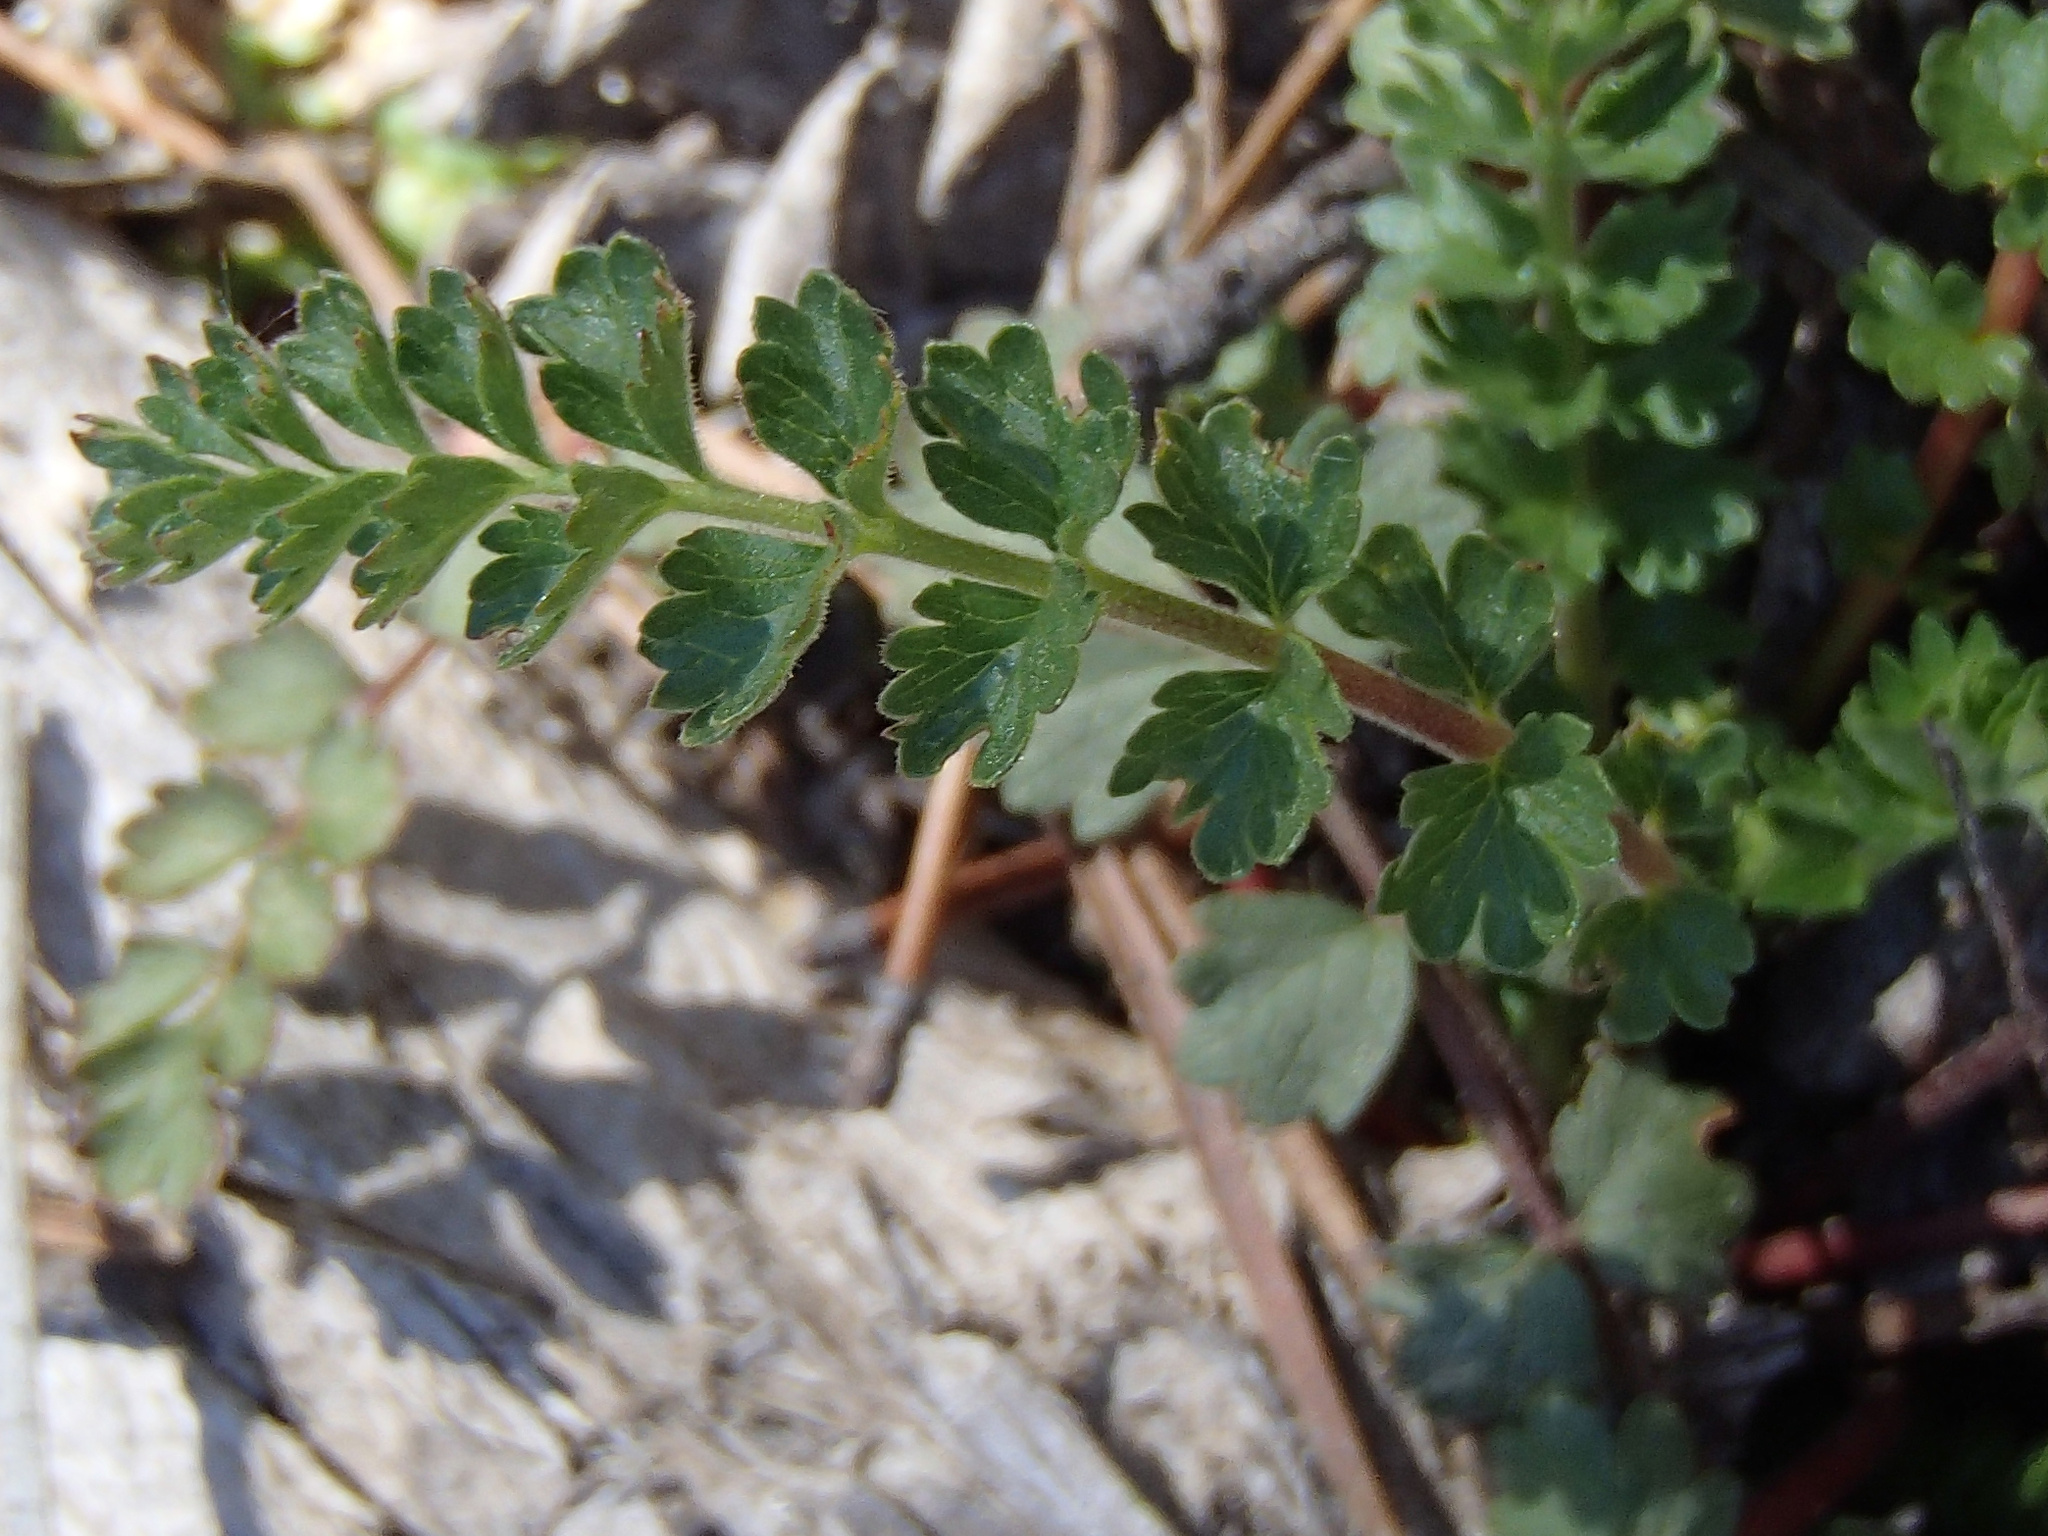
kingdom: Plantae
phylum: Tracheophyta
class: Magnoliopsida
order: Rosales
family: Rosaceae
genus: Potentilla
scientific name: Potentilla douglasii
